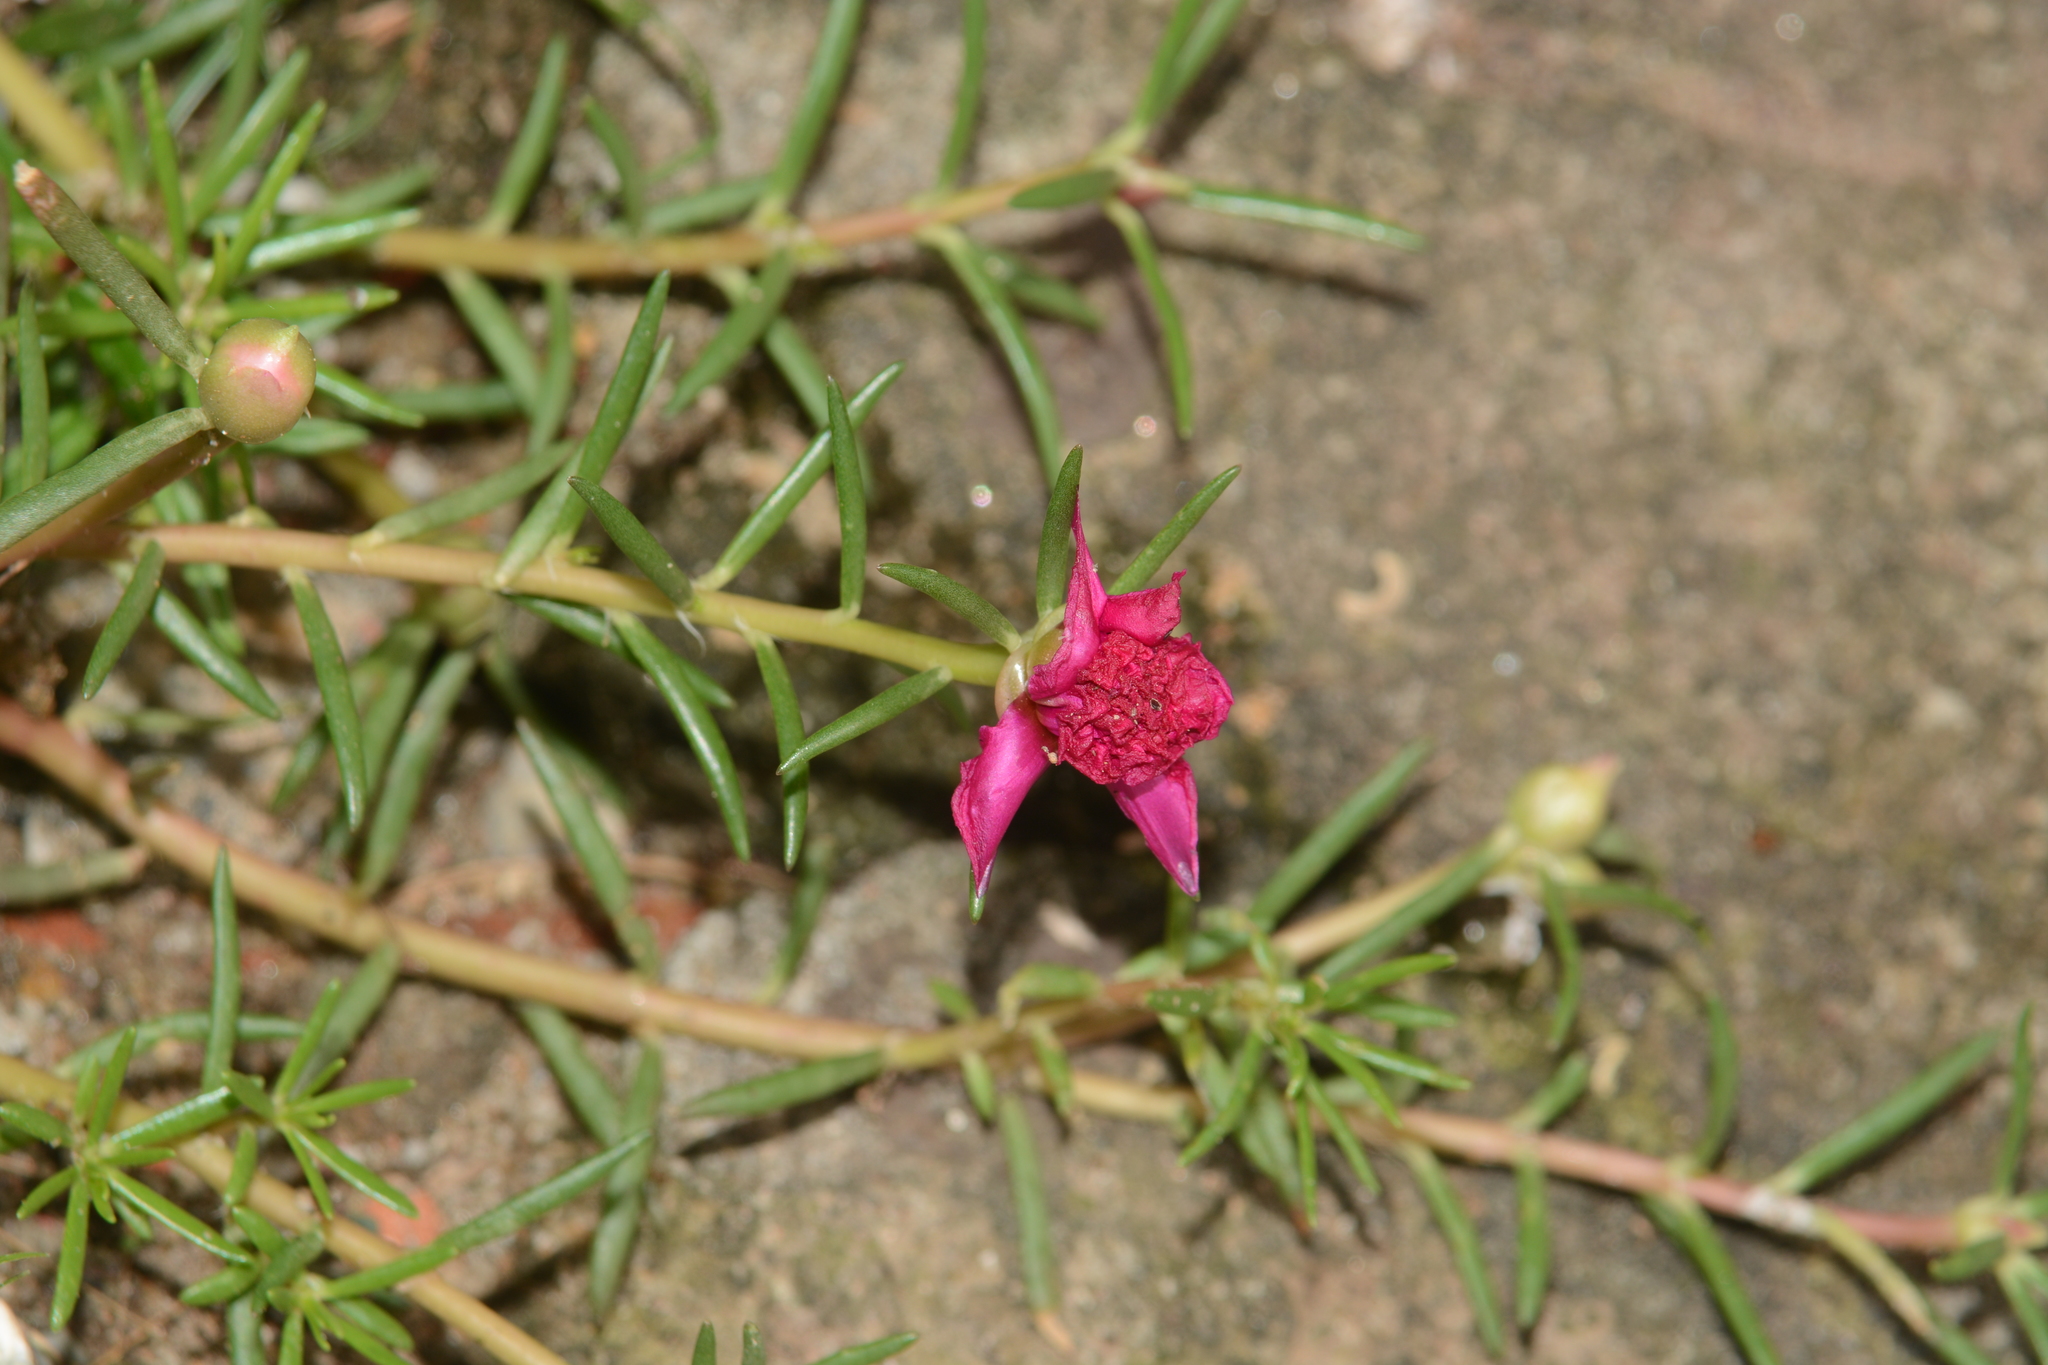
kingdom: Plantae
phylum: Tracheophyta
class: Magnoliopsida
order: Caryophyllales
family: Portulacaceae
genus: Portulaca
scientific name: Portulaca grandiflora
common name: Moss-rose
